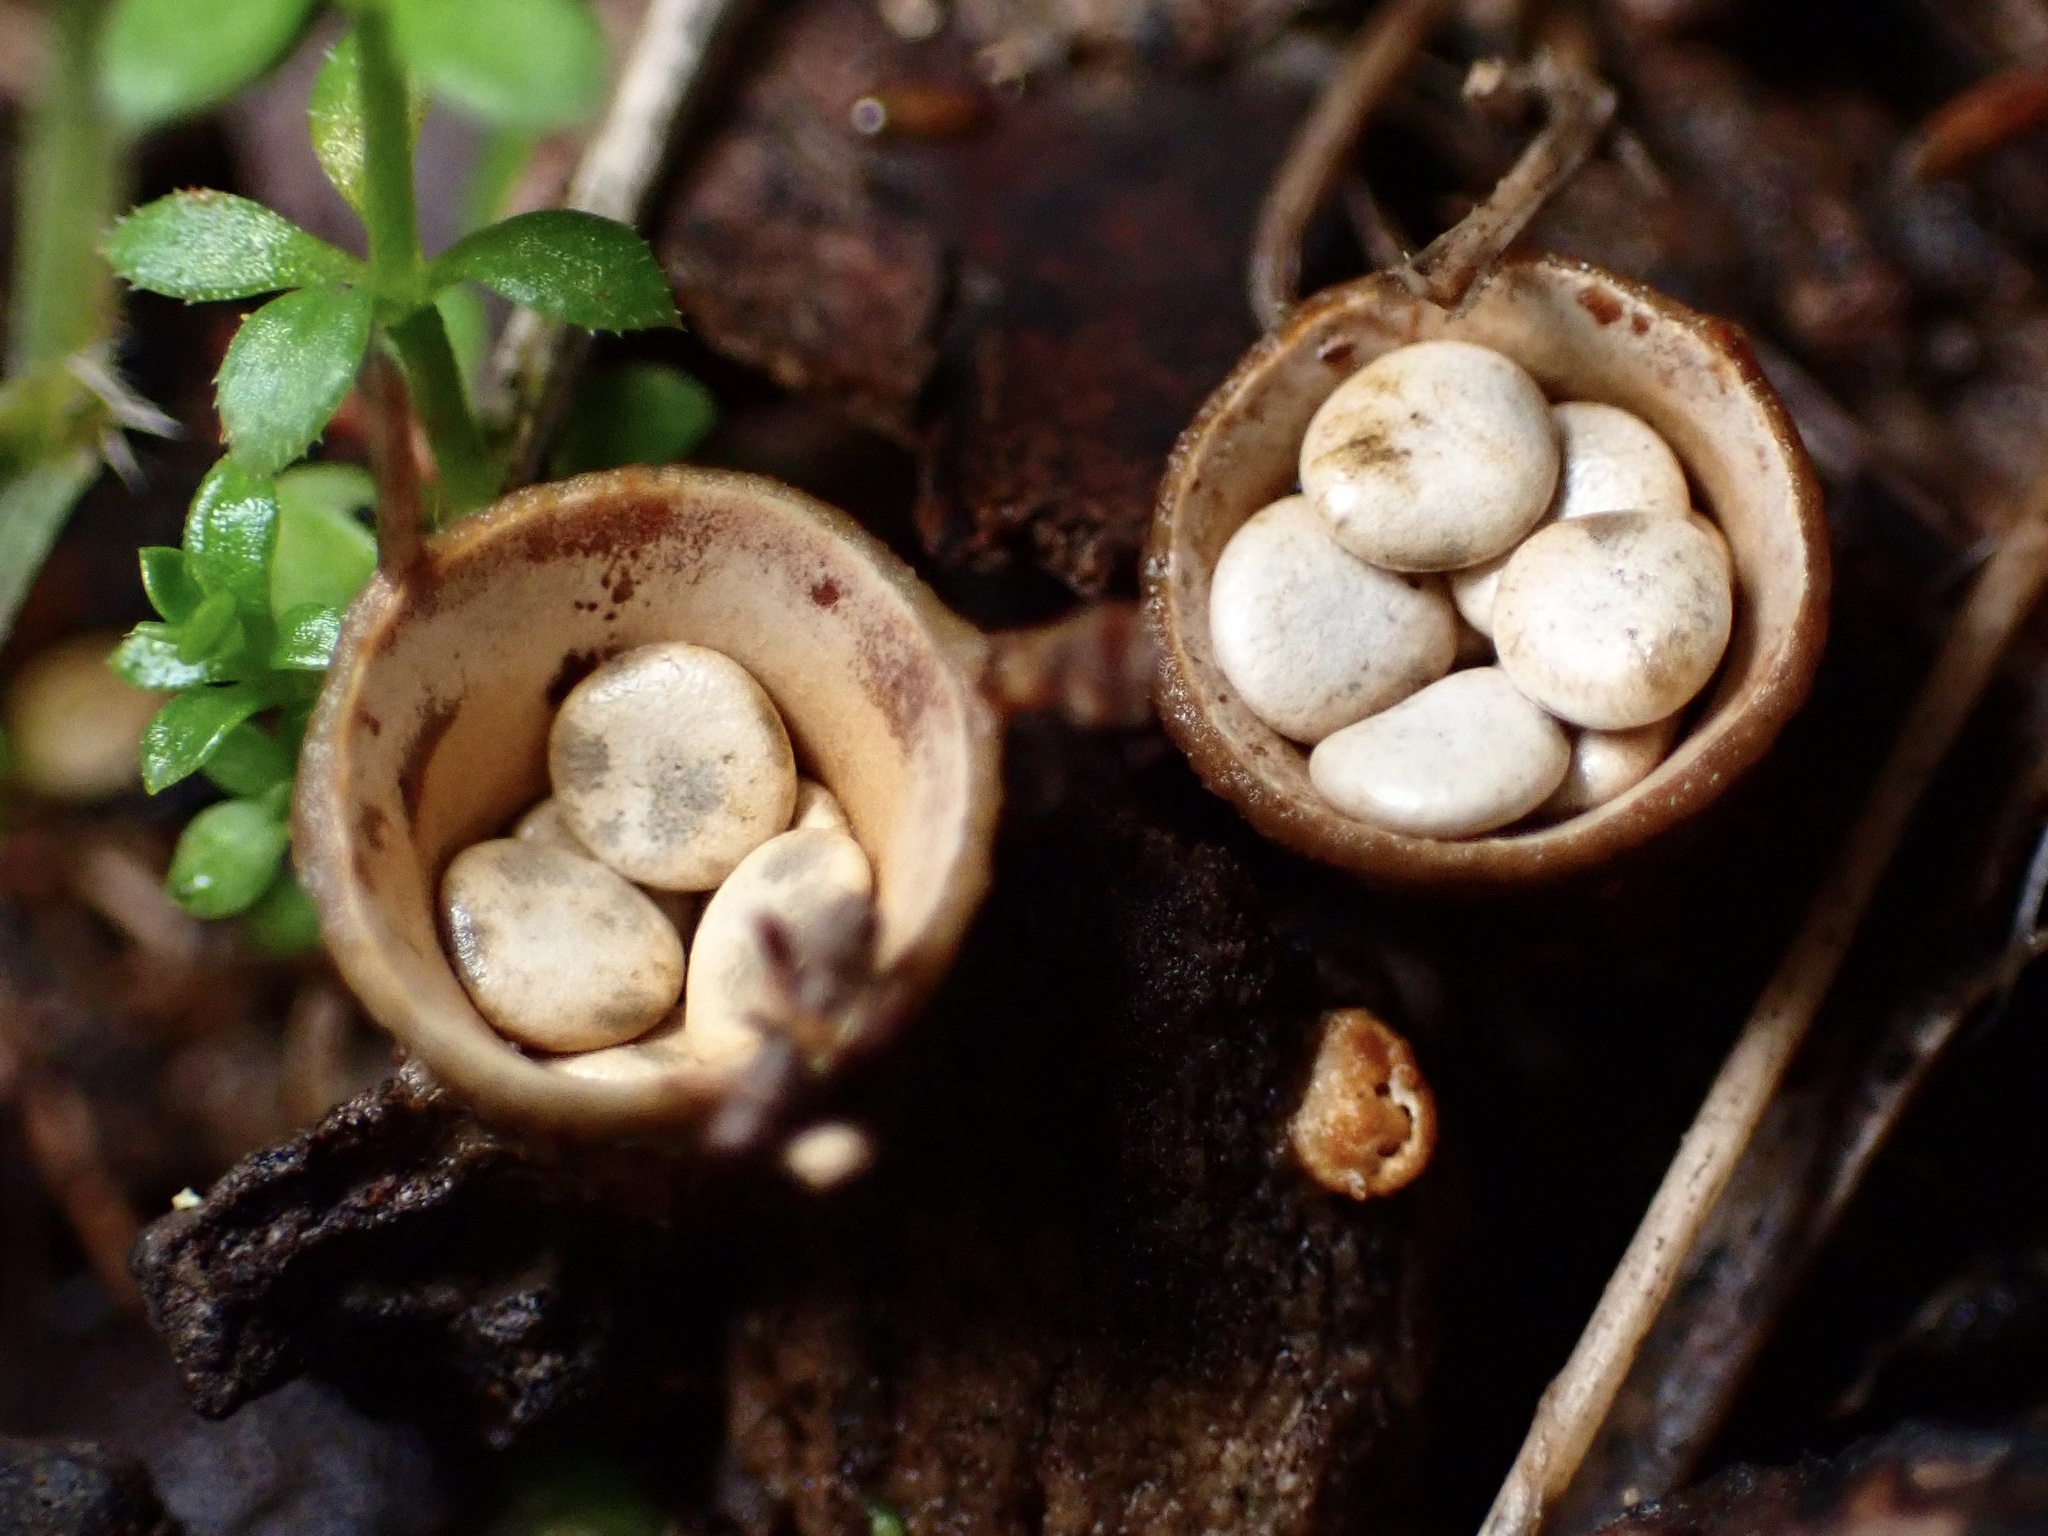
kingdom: Fungi
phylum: Basidiomycota
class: Agaricomycetes
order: Agaricales
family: Nidulariaceae
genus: Crucibulum
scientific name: Crucibulum laeve
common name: Common bird's nest
